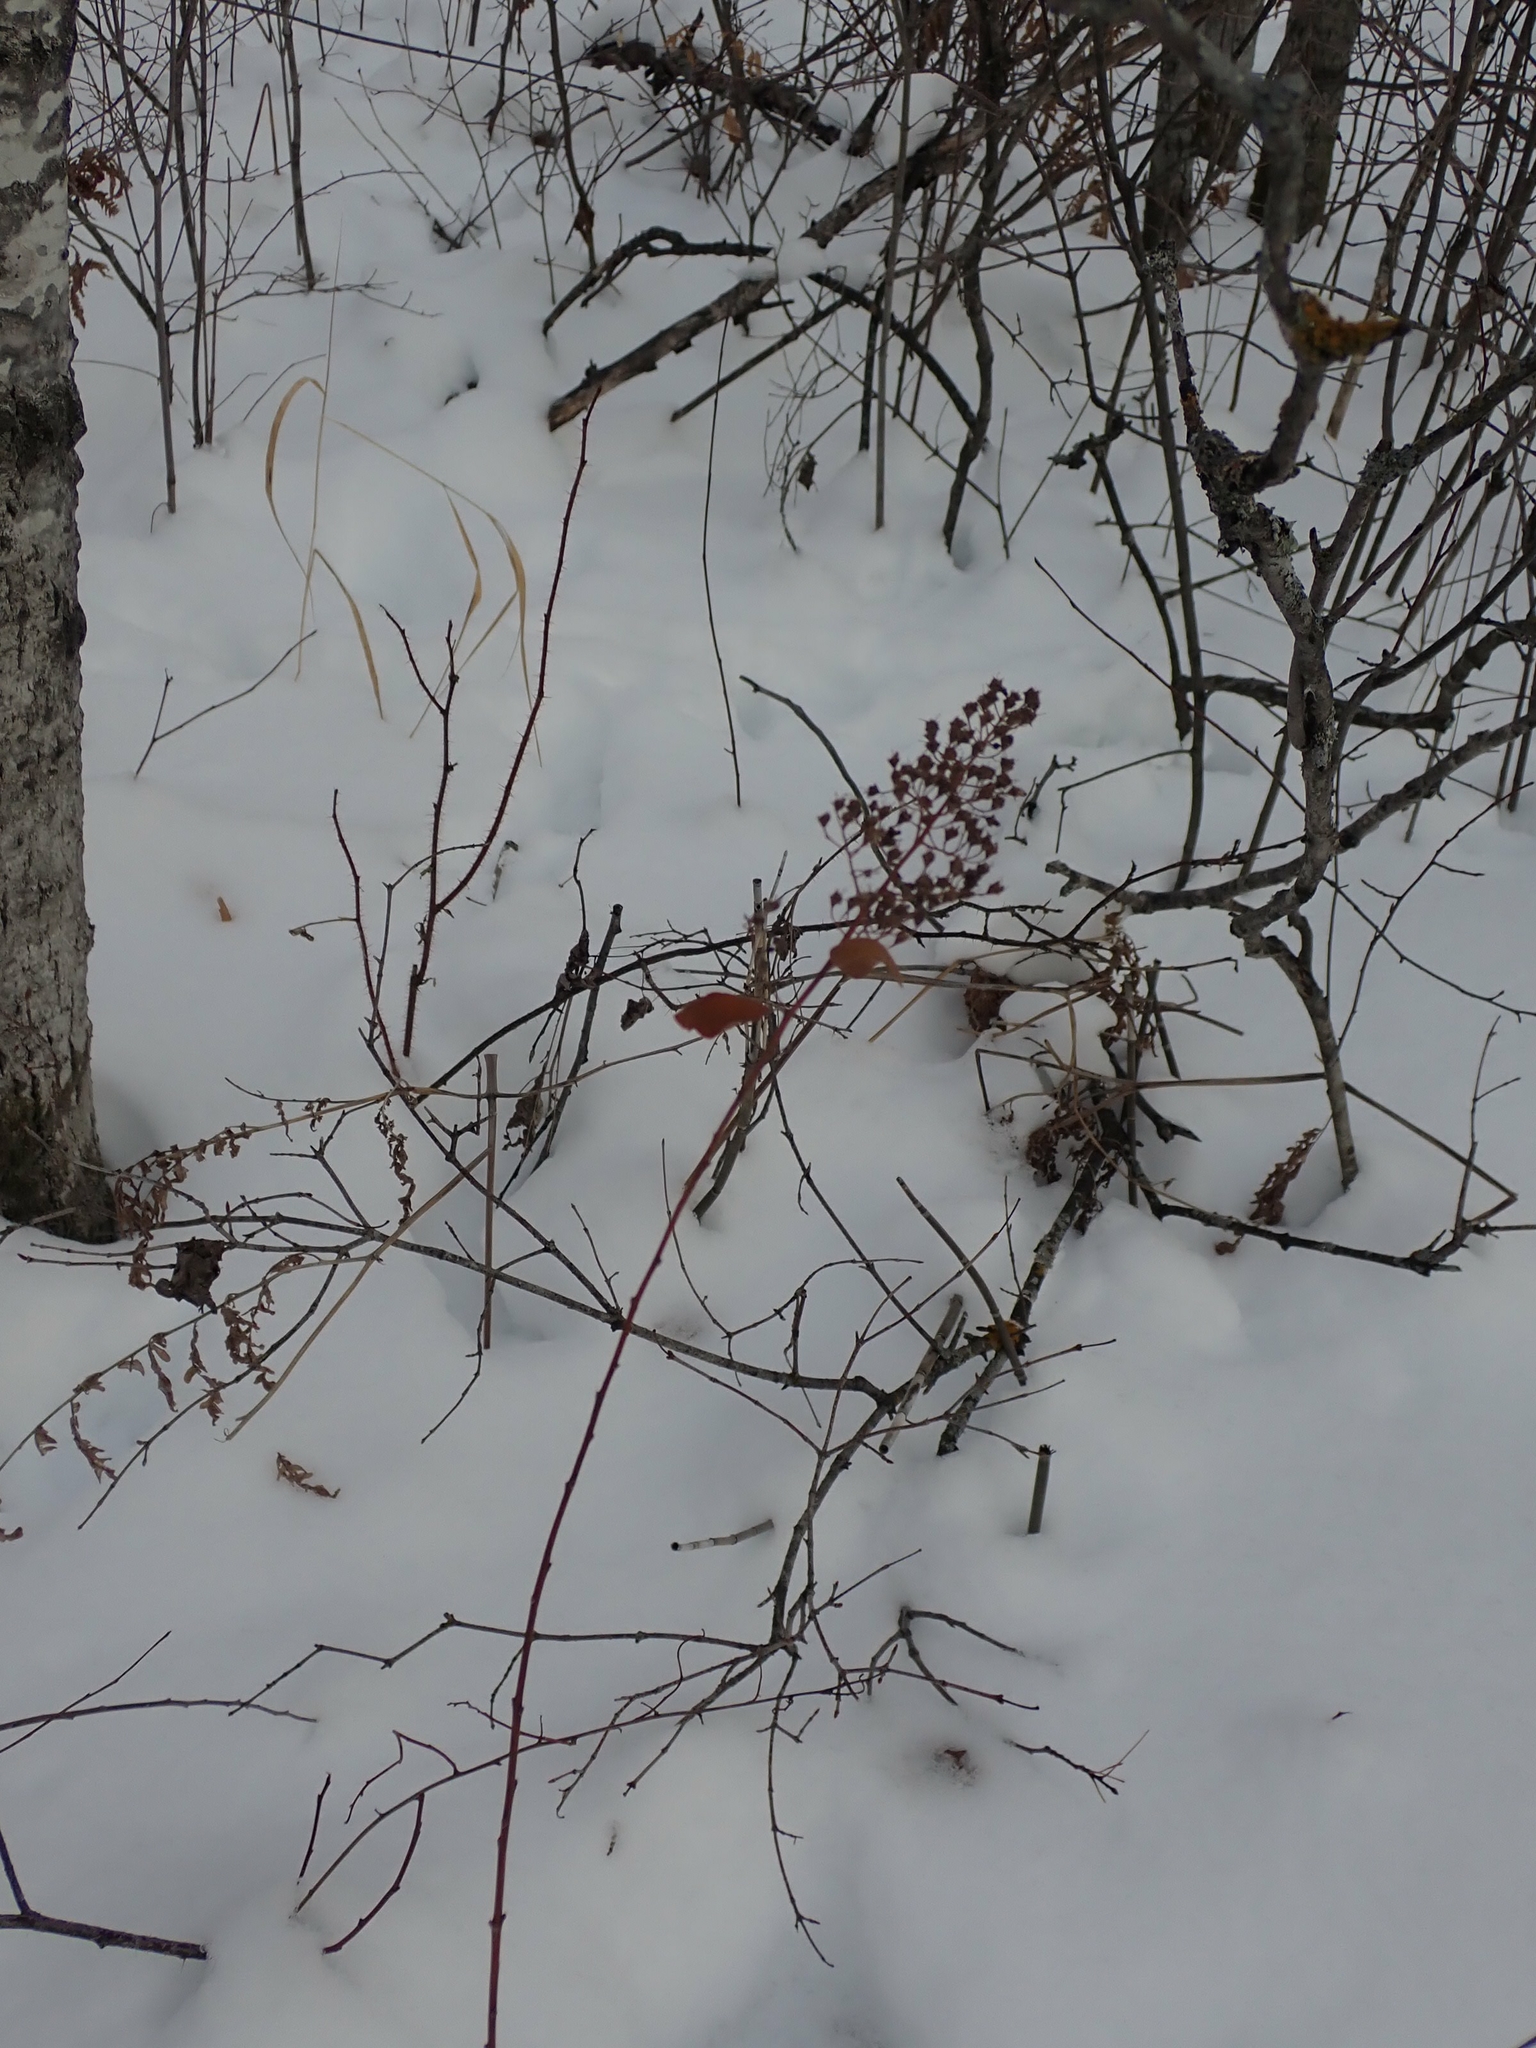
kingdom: Plantae
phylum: Tracheophyta
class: Magnoliopsida
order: Rosales
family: Rosaceae
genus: Spiraea
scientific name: Spiraea alba
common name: Pale bridewort
